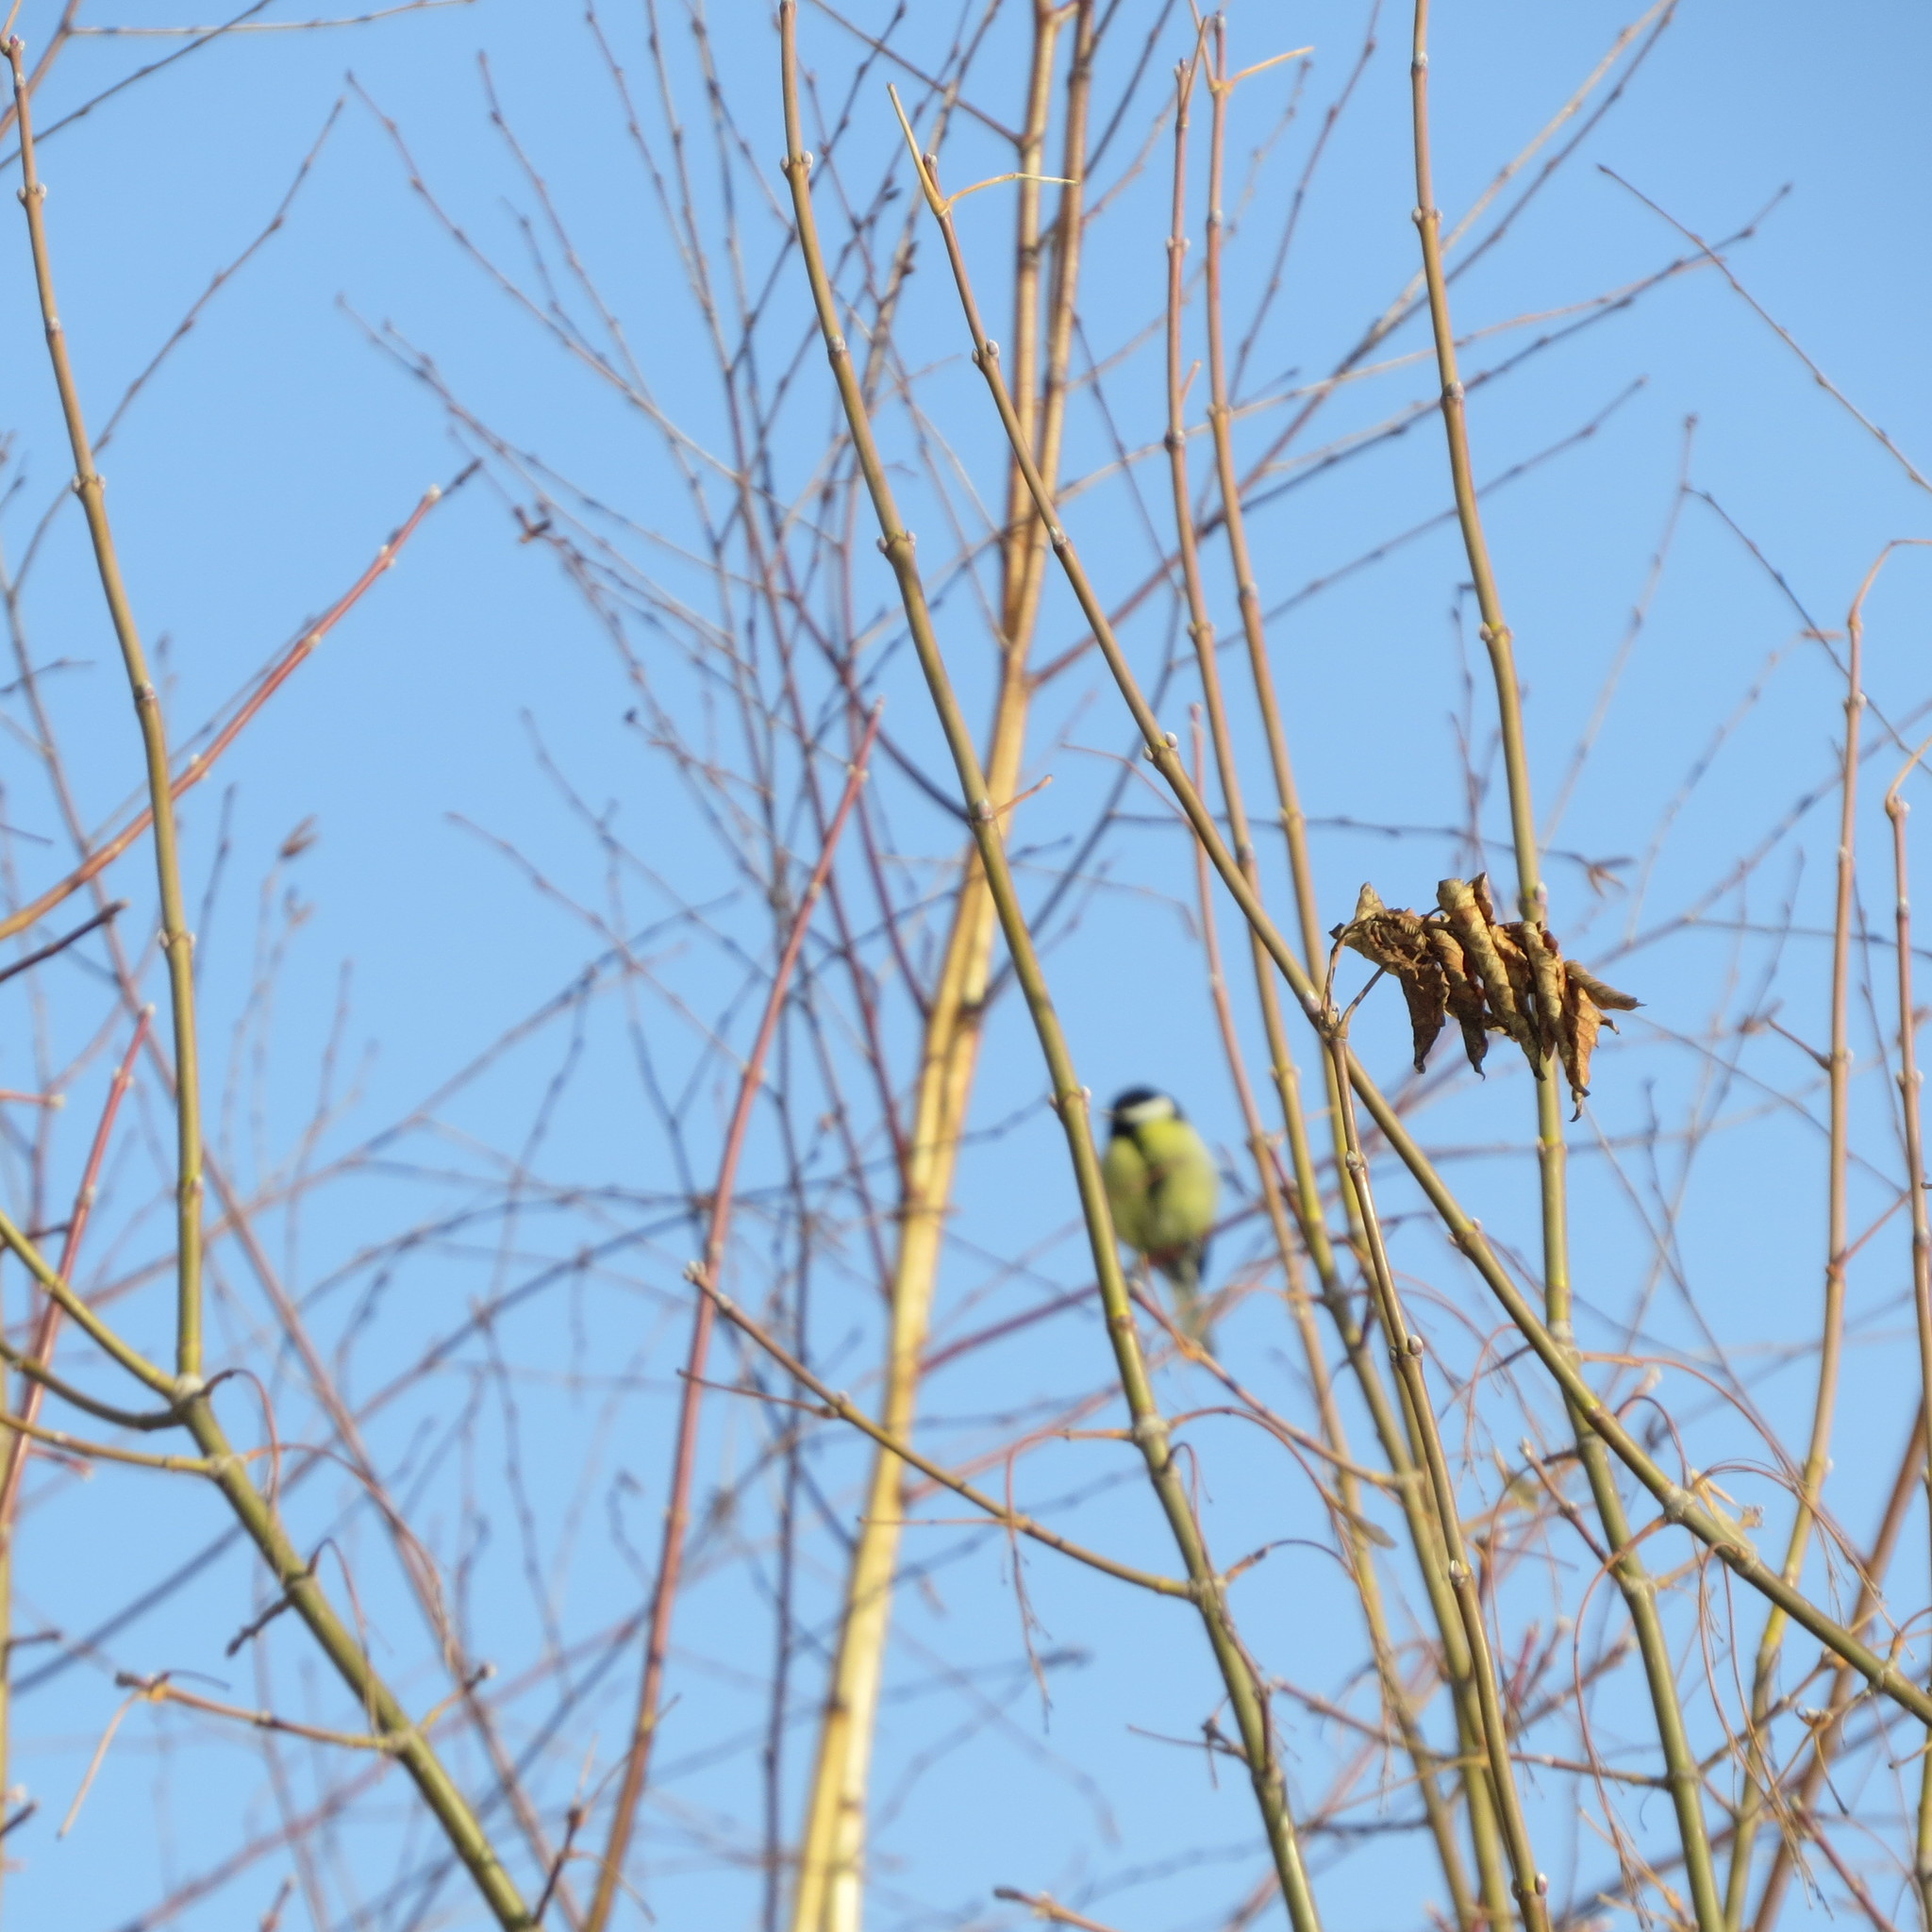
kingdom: Animalia
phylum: Chordata
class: Aves
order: Passeriformes
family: Paridae
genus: Parus
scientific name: Parus major
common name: Great tit
